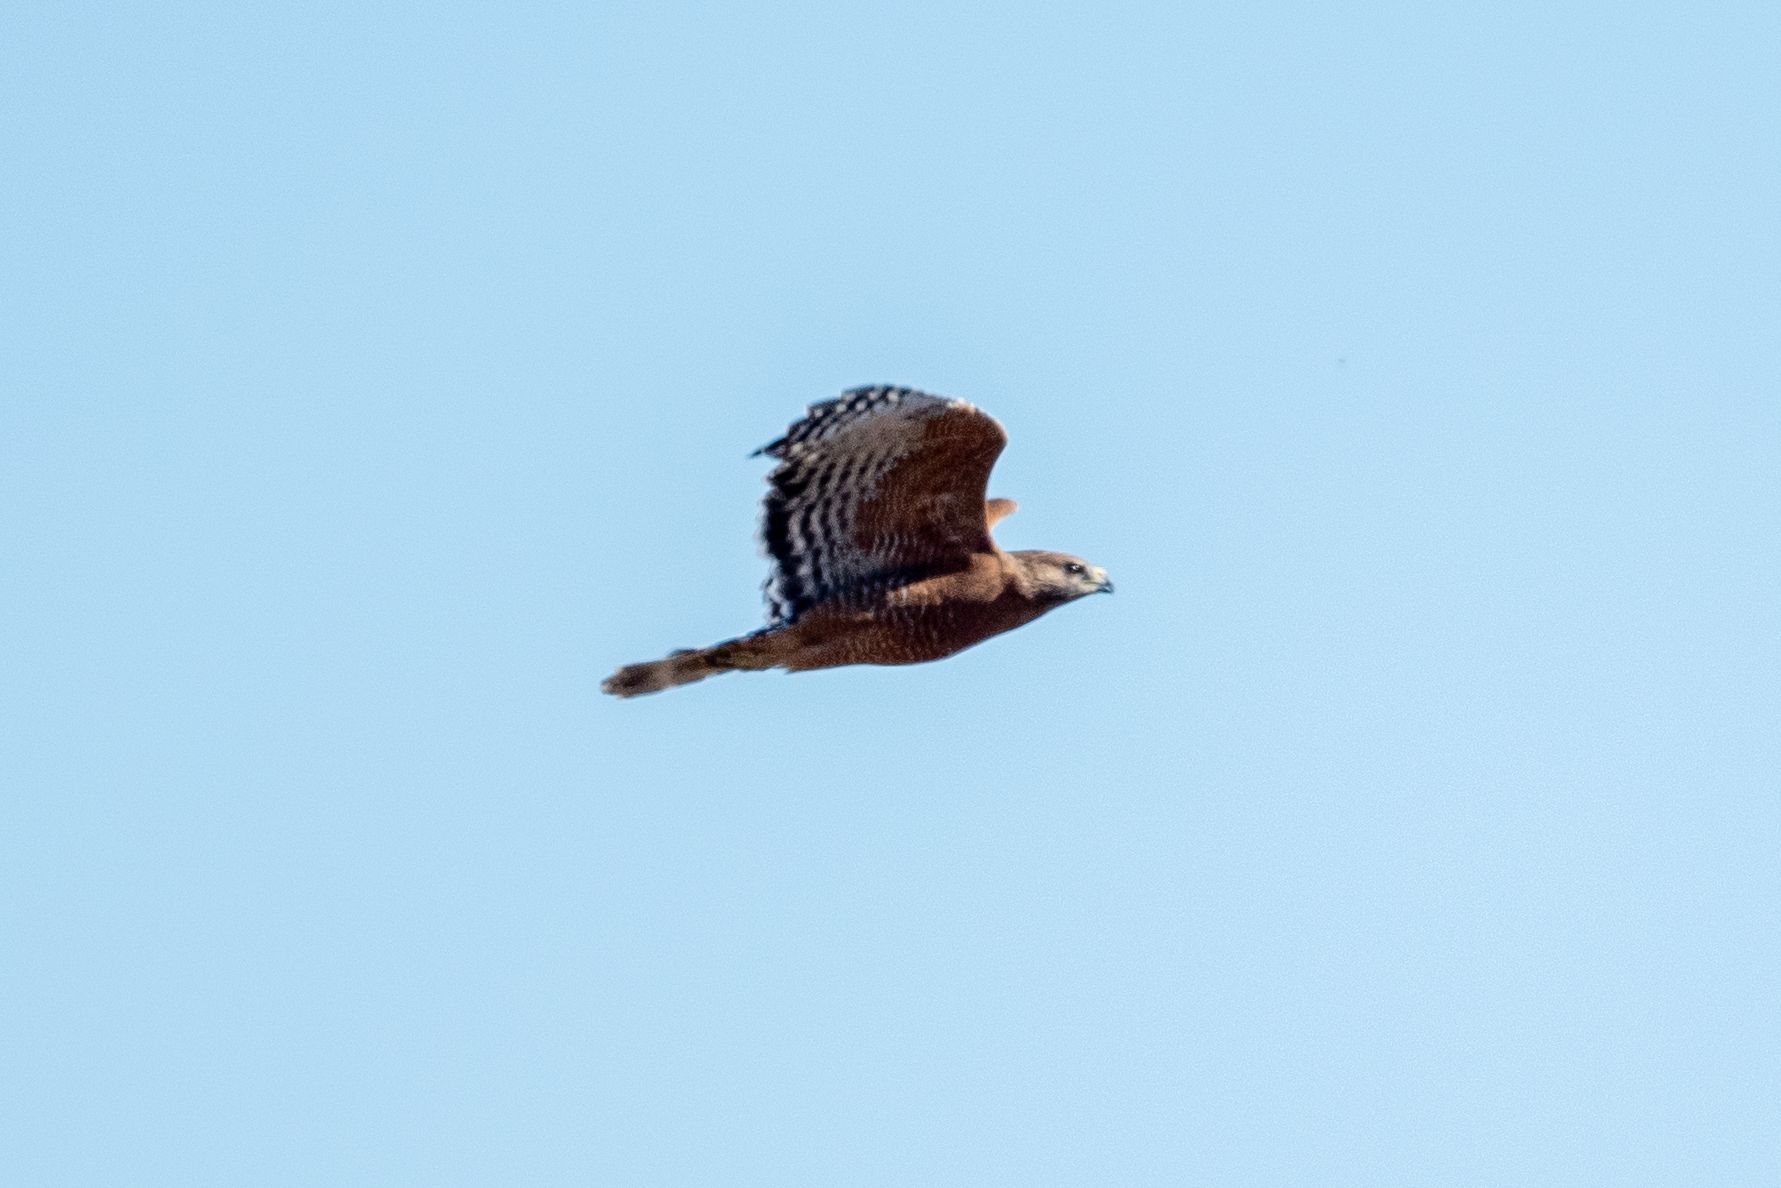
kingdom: Animalia
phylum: Chordata
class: Aves
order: Accipitriformes
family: Accipitridae
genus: Buteo
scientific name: Buteo lineatus
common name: Red-shouldered hawk
